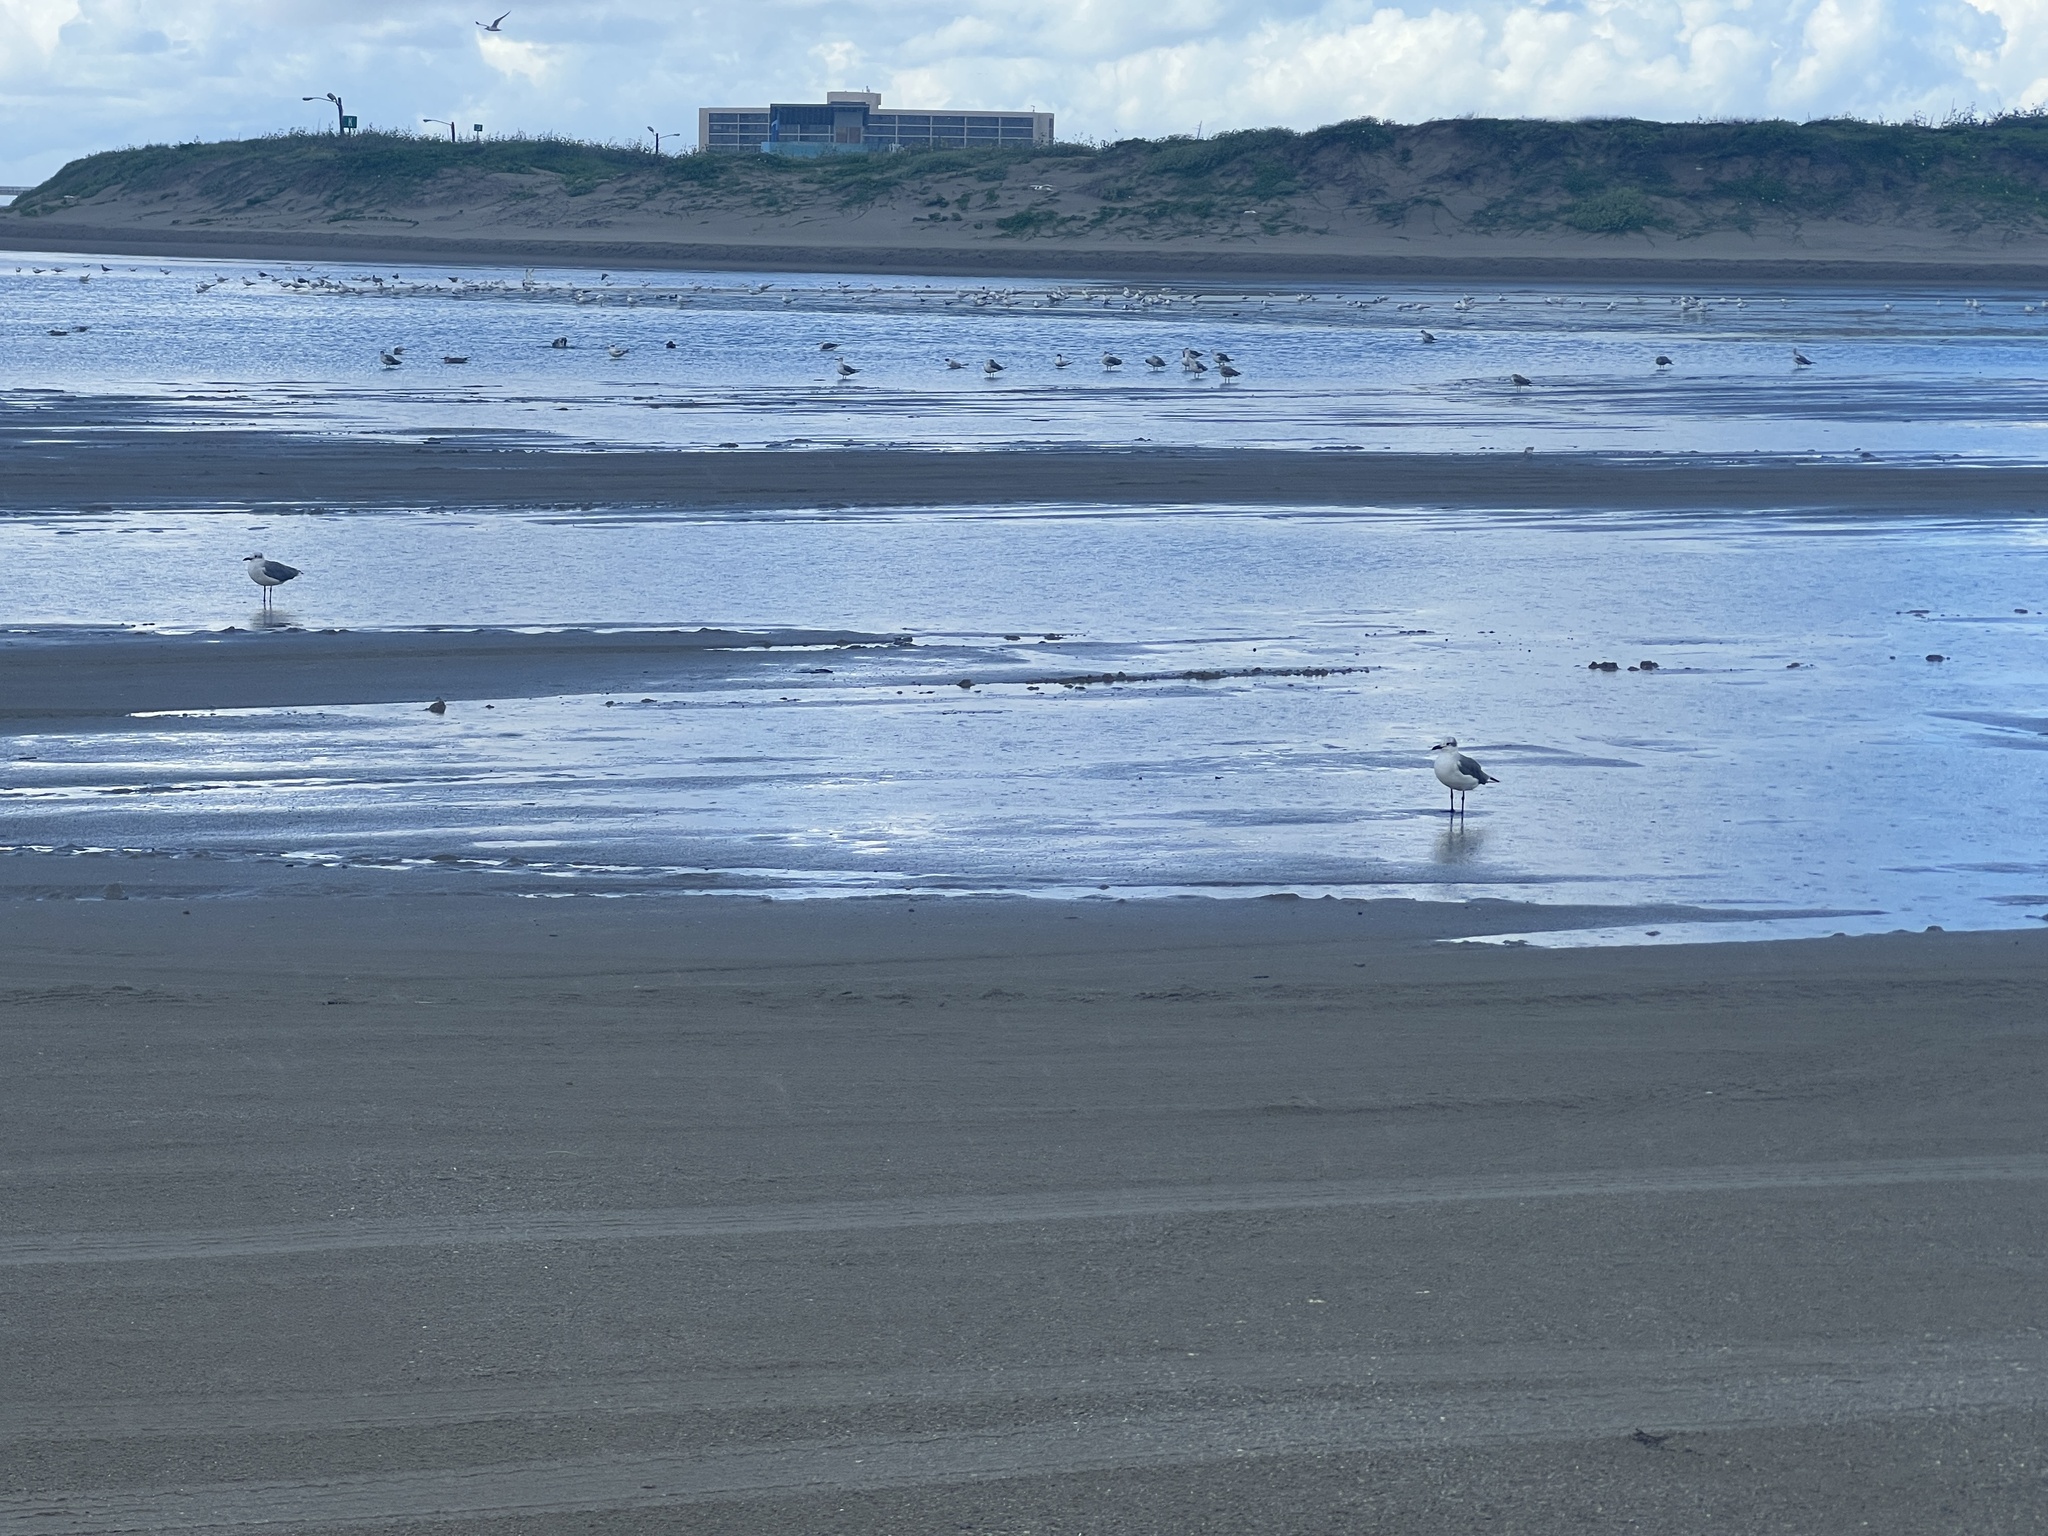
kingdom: Animalia
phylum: Chordata
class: Aves
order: Charadriiformes
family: Laridae
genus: Leucophaeus
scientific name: Leucophaeus atricilla
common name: Laughing gull
